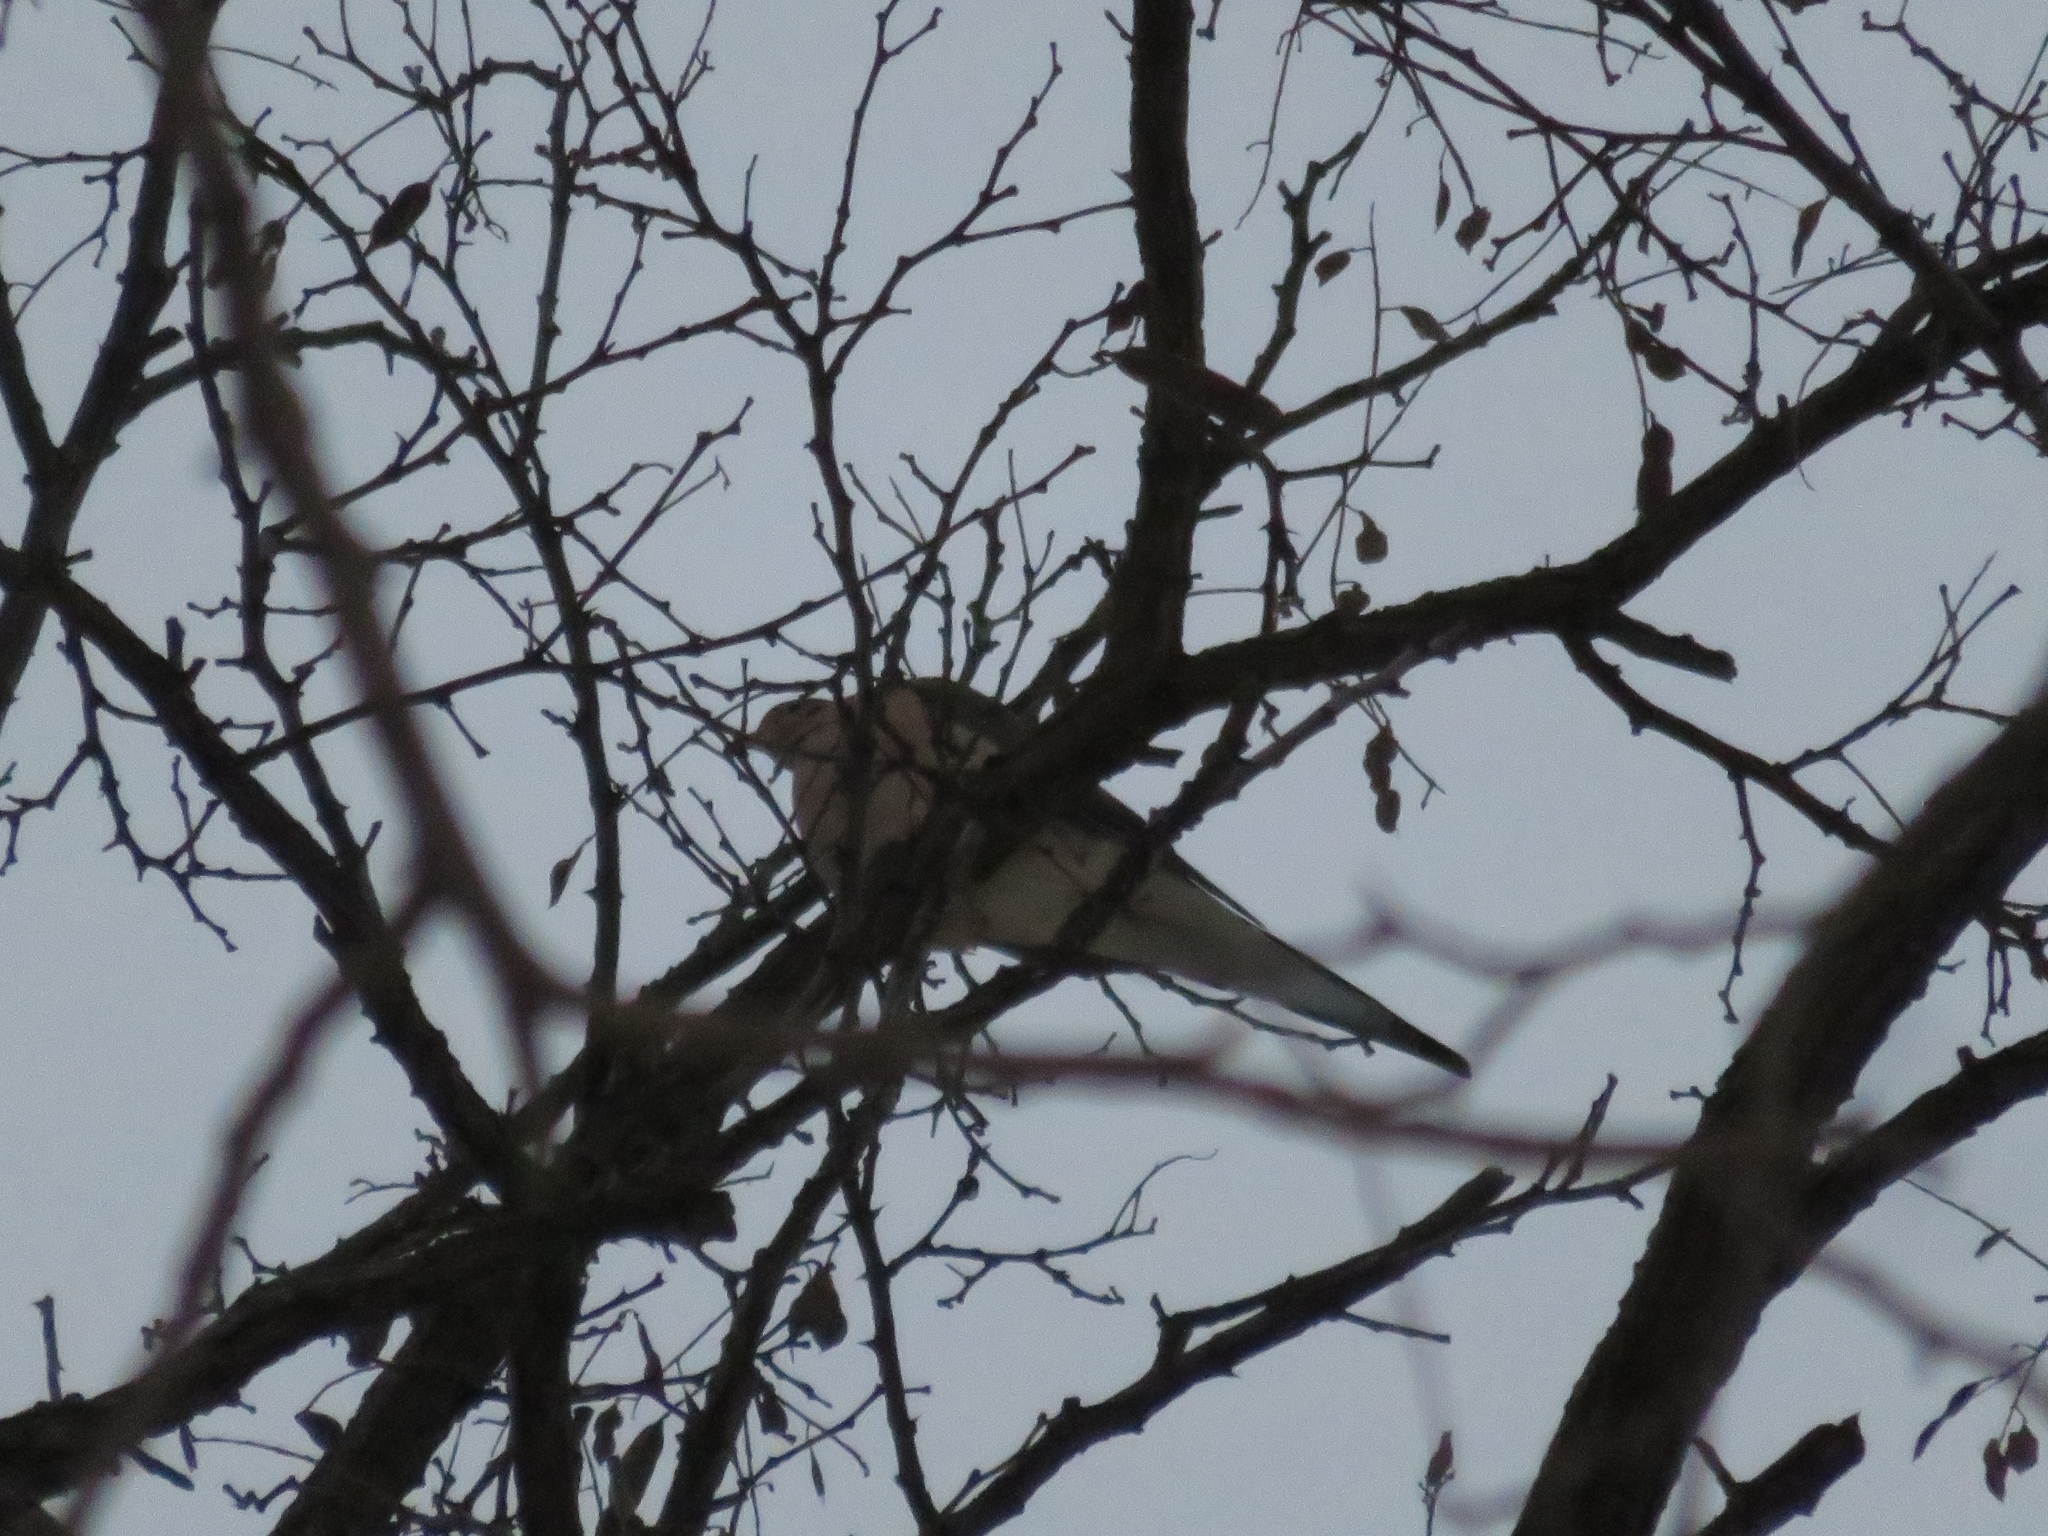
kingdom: Animalia
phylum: Chordata
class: Aves
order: Columbiformes
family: Columbidae
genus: Zenaida
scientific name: Zenaida macroura
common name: Mourning dove
